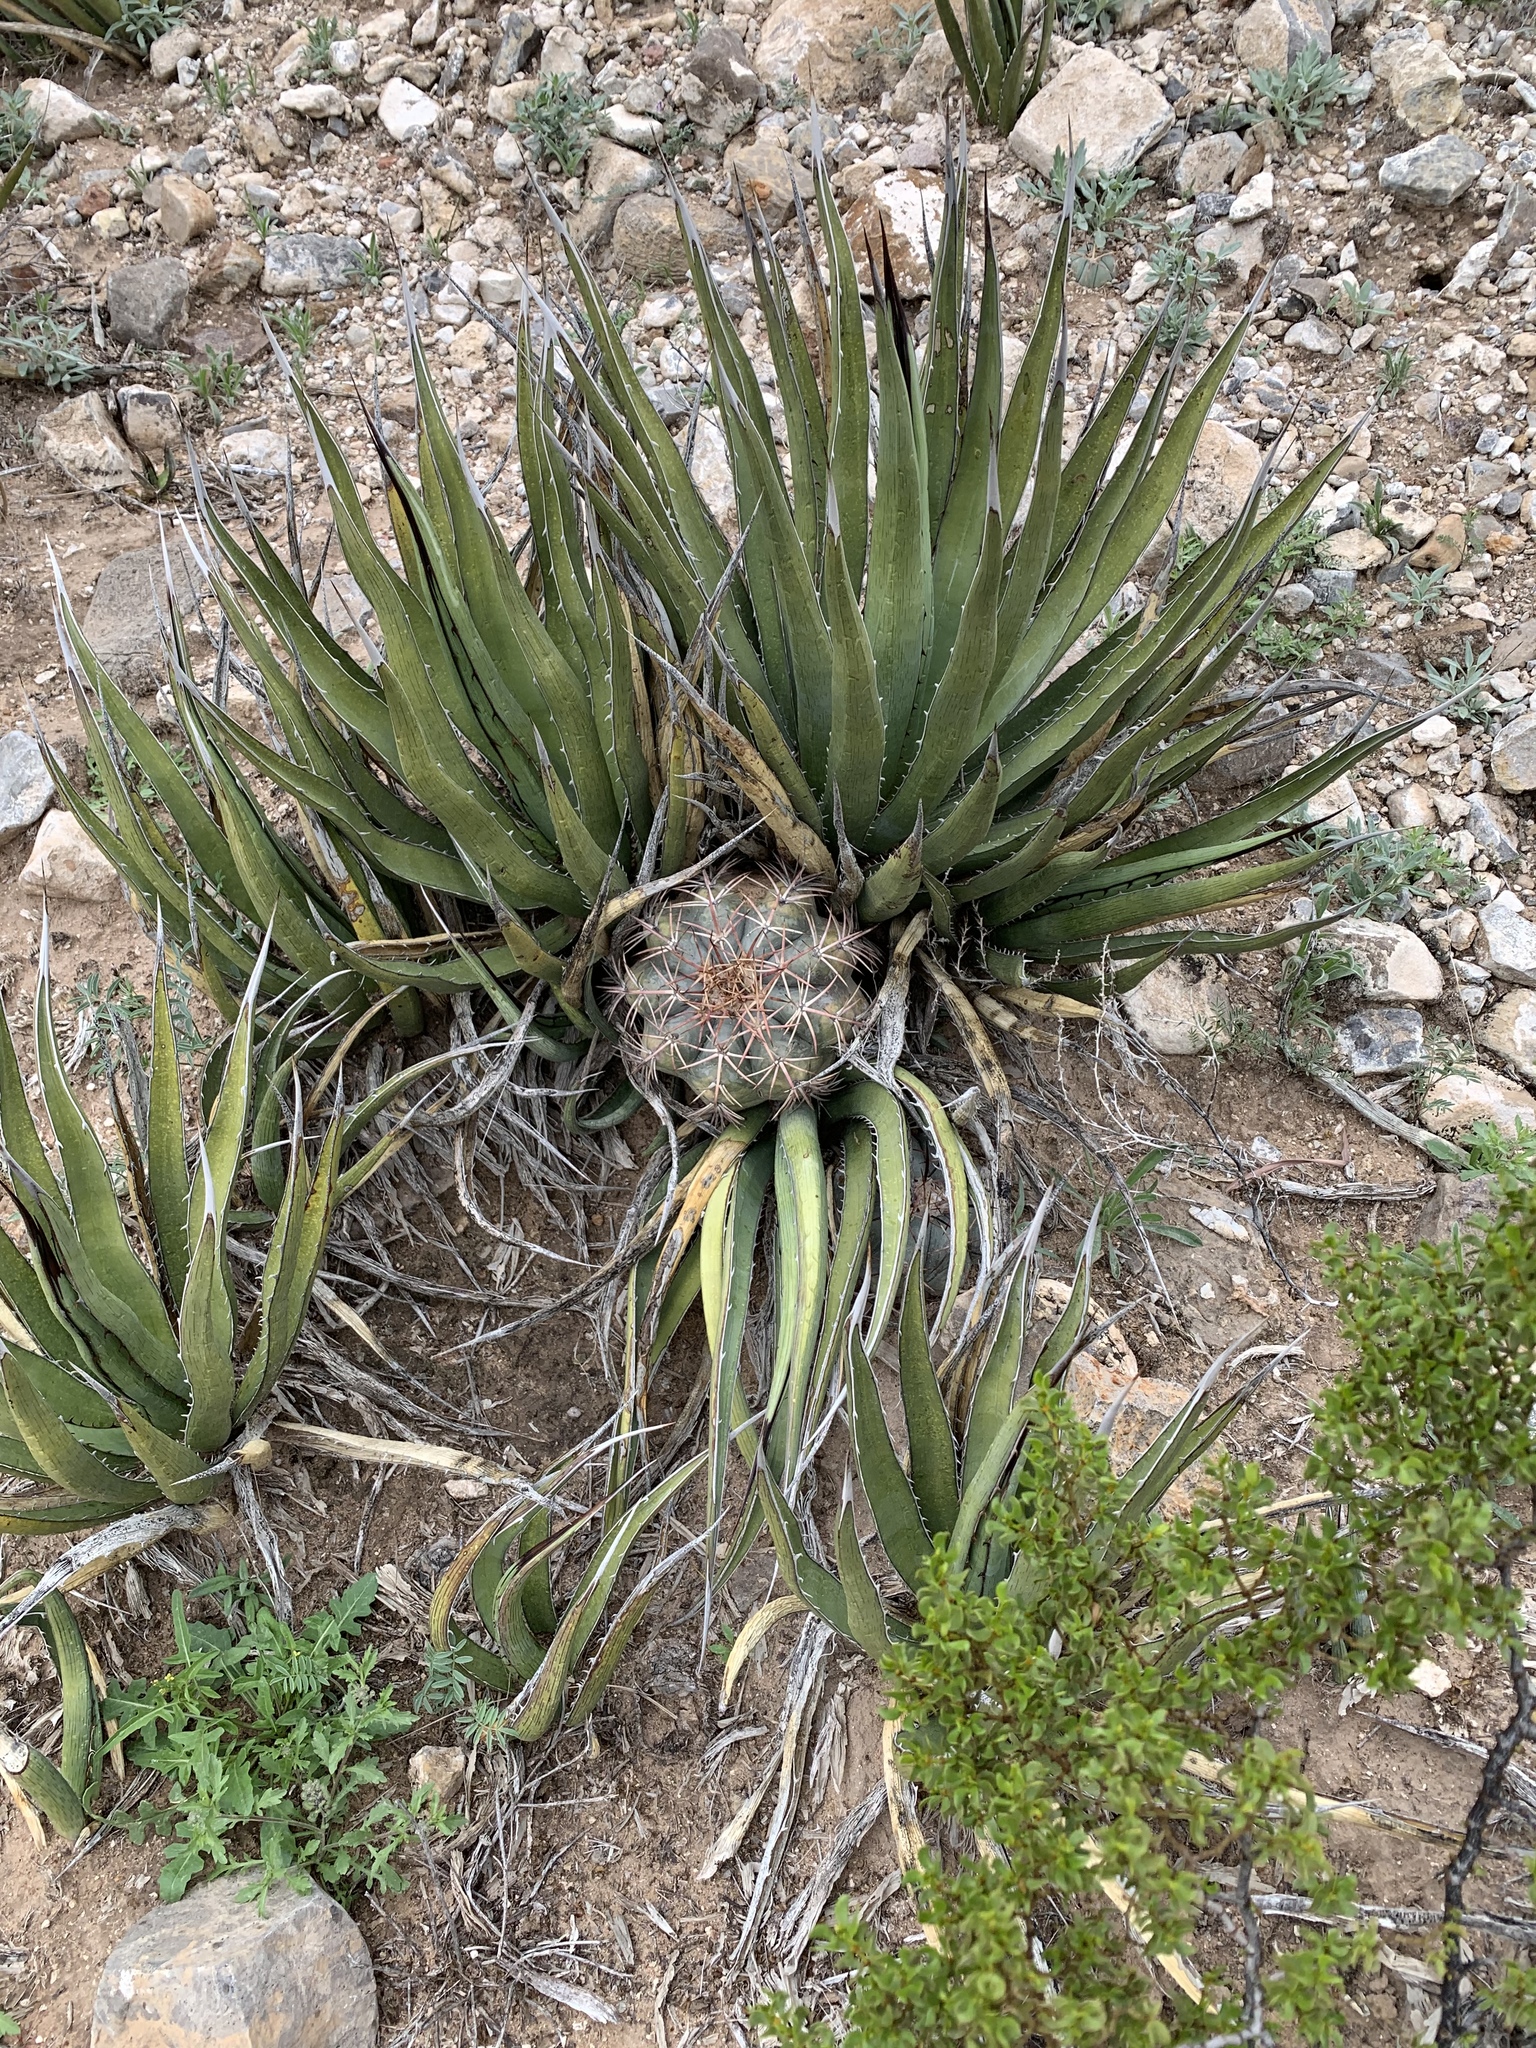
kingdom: Plantae
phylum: Tracheophyta
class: Liliopsida
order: Asparagales
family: Asparagaceae
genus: Agave
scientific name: Agave lechuguilla
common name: Lecheguilla agave
